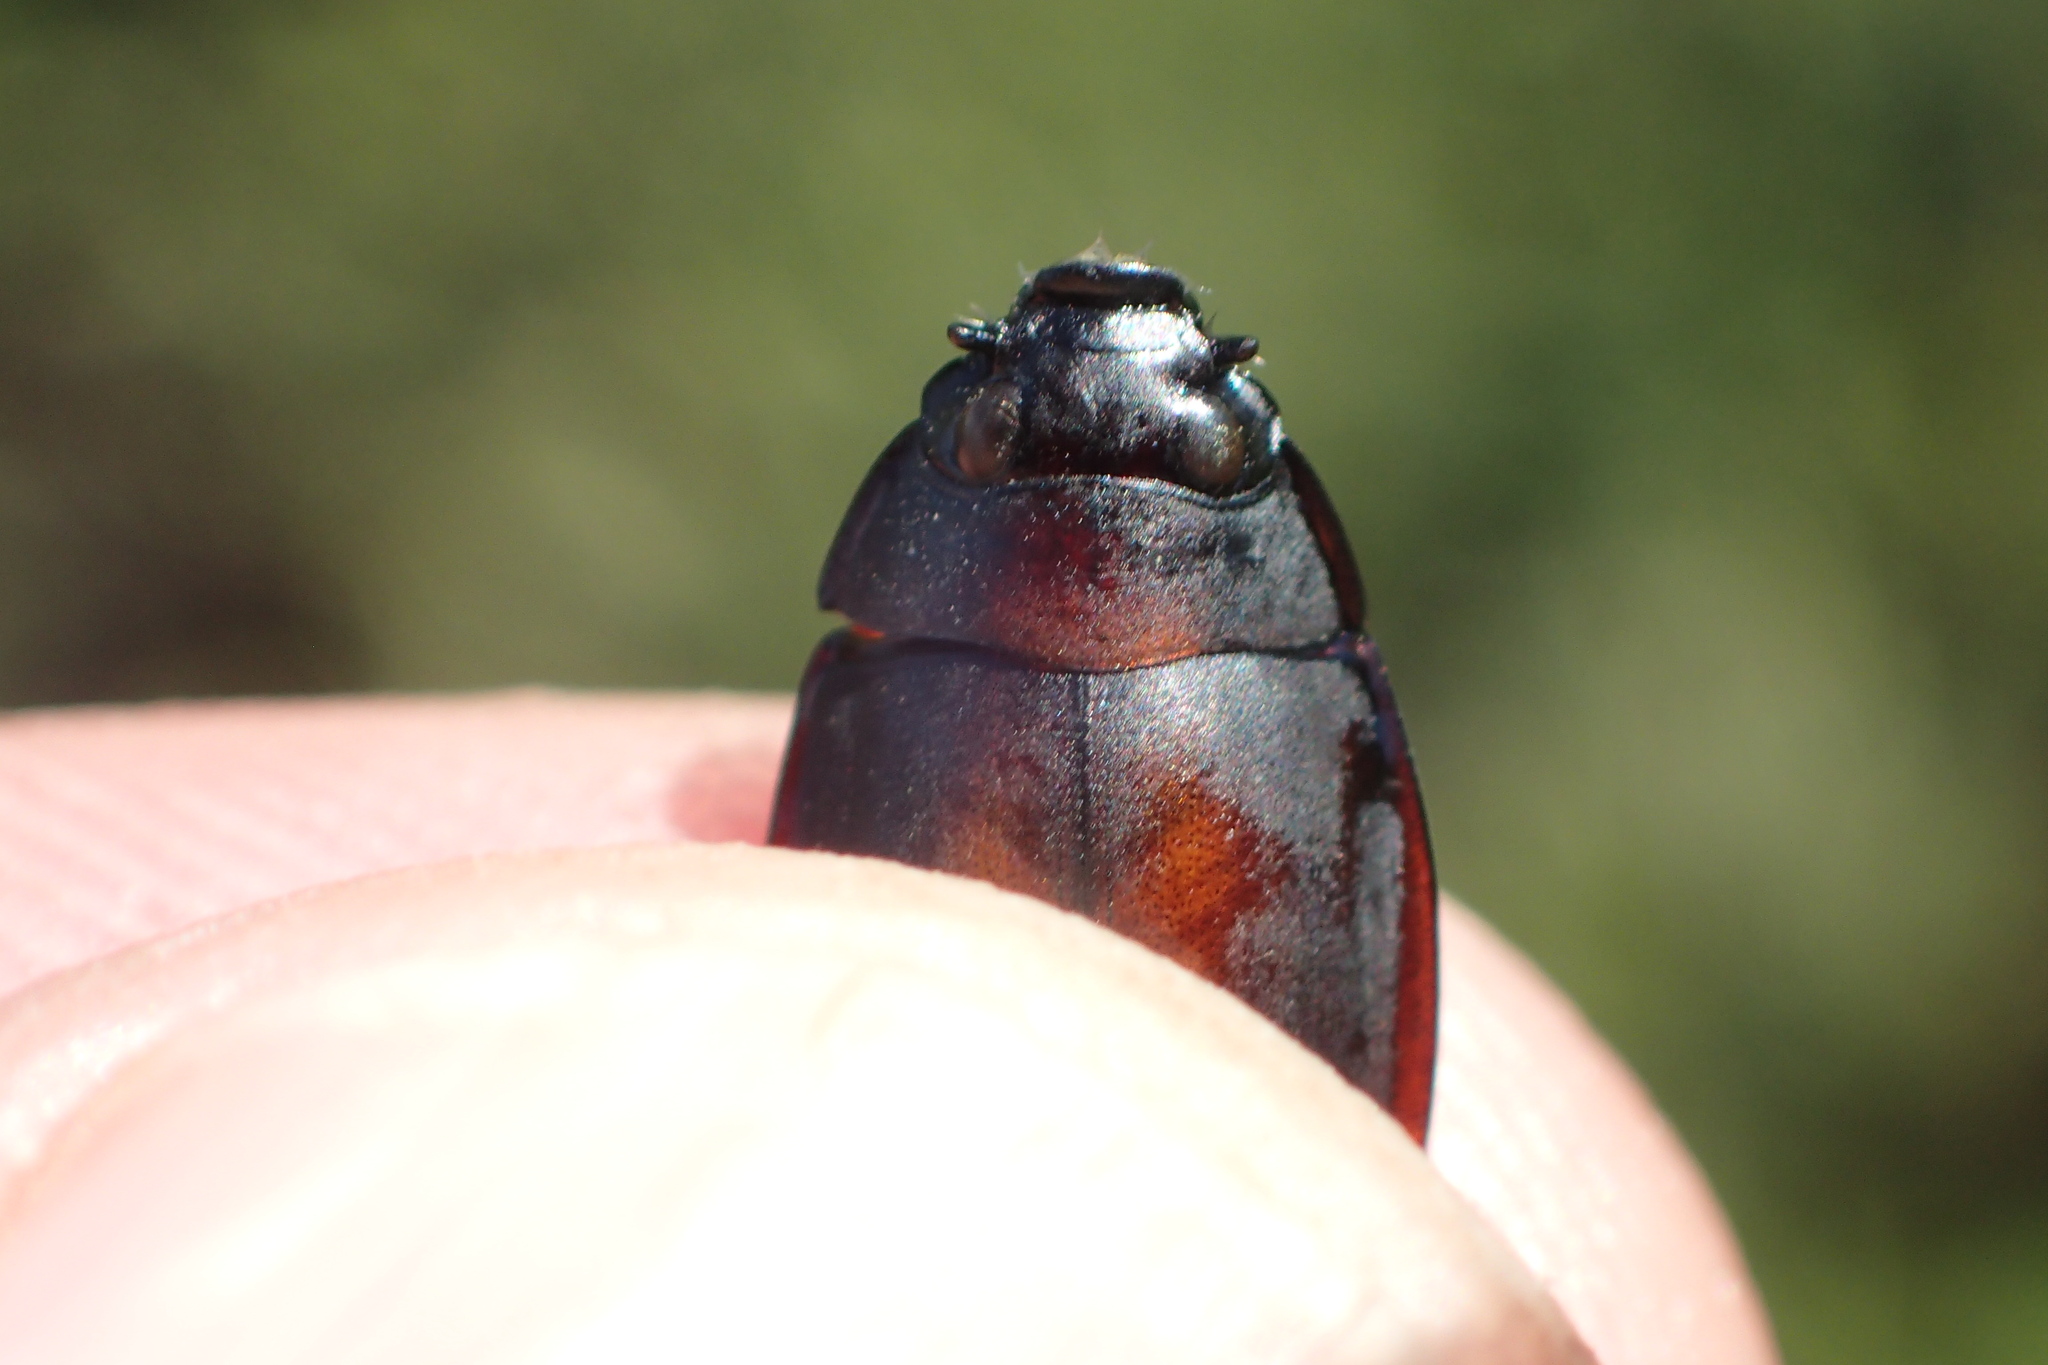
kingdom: Animalia
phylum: Arthropoda
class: Insecta
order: Coleoptera
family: Gyrinidae
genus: Dineutus
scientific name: Dineutus
